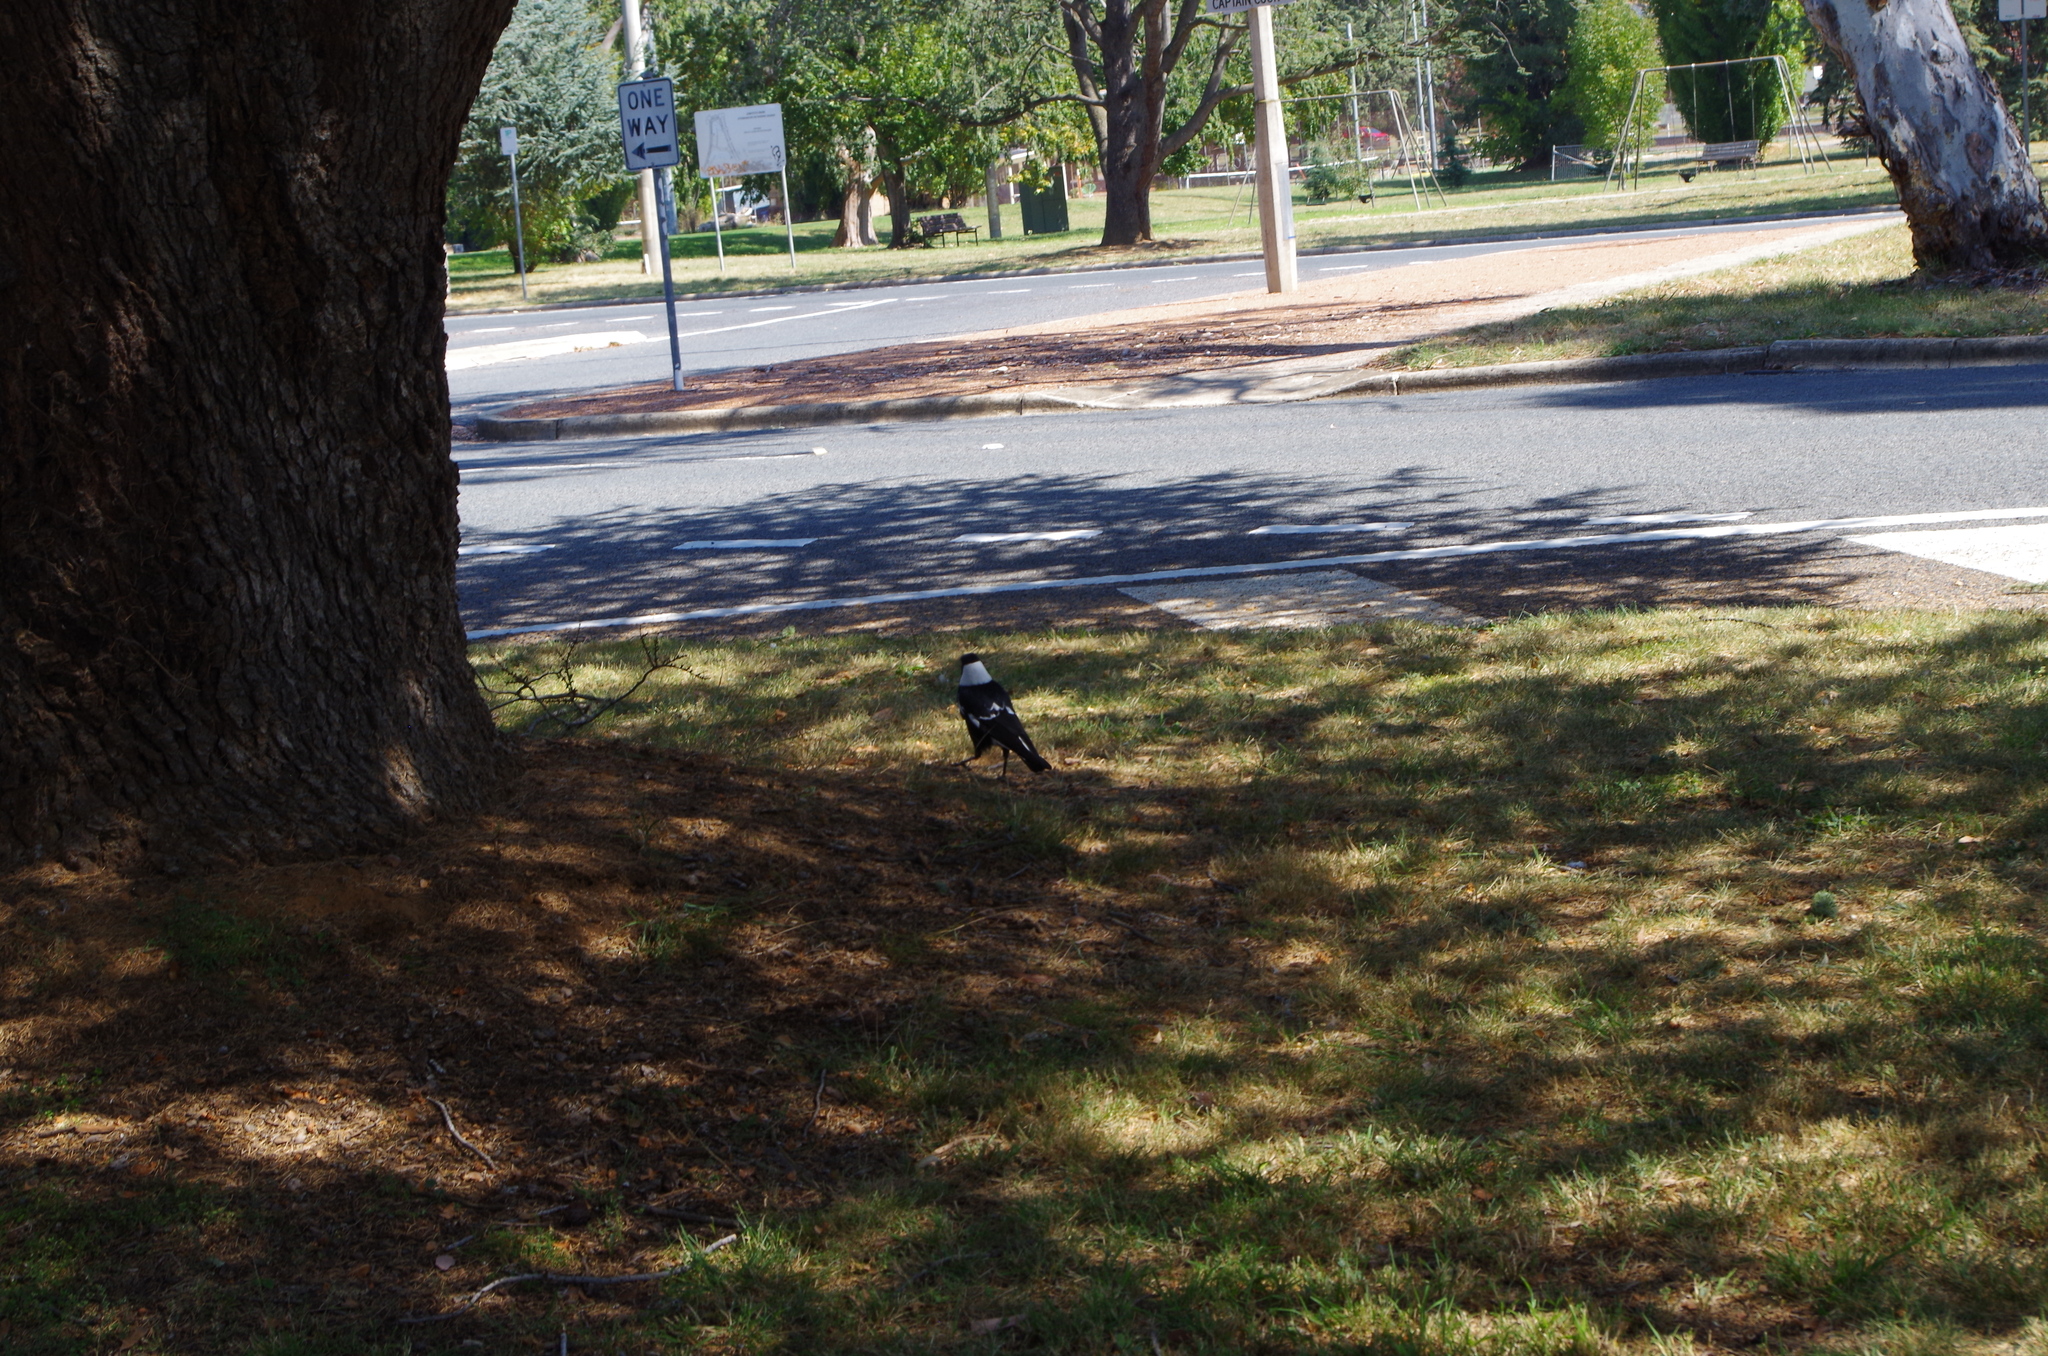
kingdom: Animalia
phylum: Chordata
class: Aves
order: Passeriformes
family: Cracticidae
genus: Gymnorhina
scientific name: Gymnorhina tibicen
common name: Australian magpie
